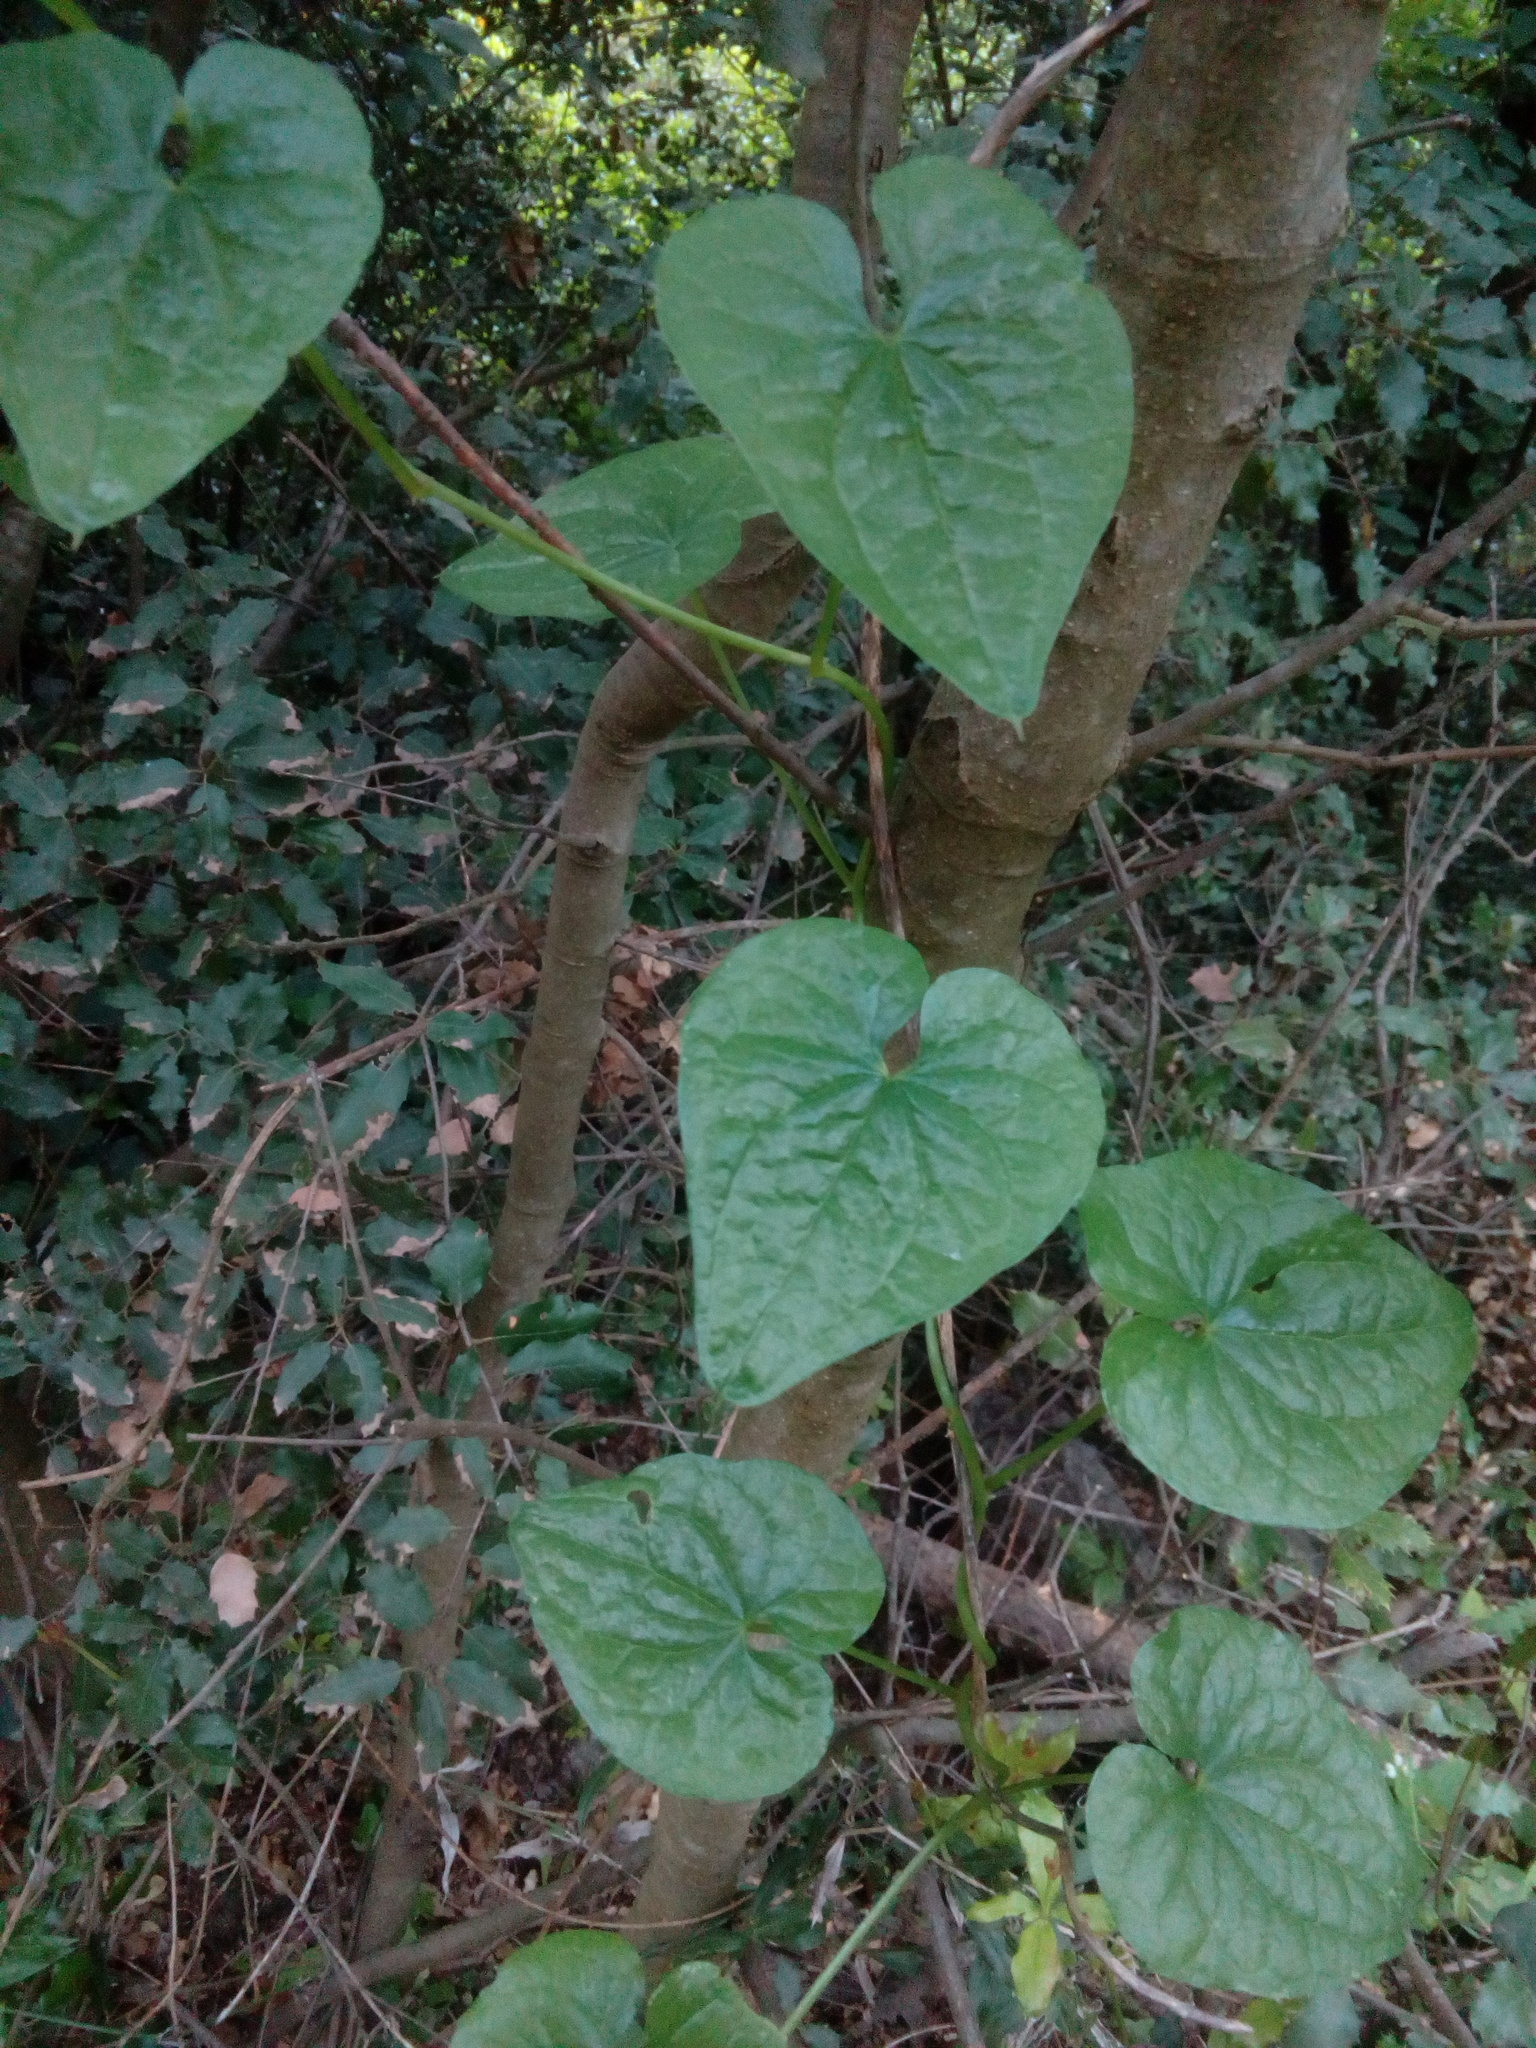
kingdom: Plantae
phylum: Tracheophyta
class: Liliopsida
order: Dioscoreales
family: Dioscoreaceae
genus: Dioscorea
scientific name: Dioscorea communis
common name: Black-bindweed
